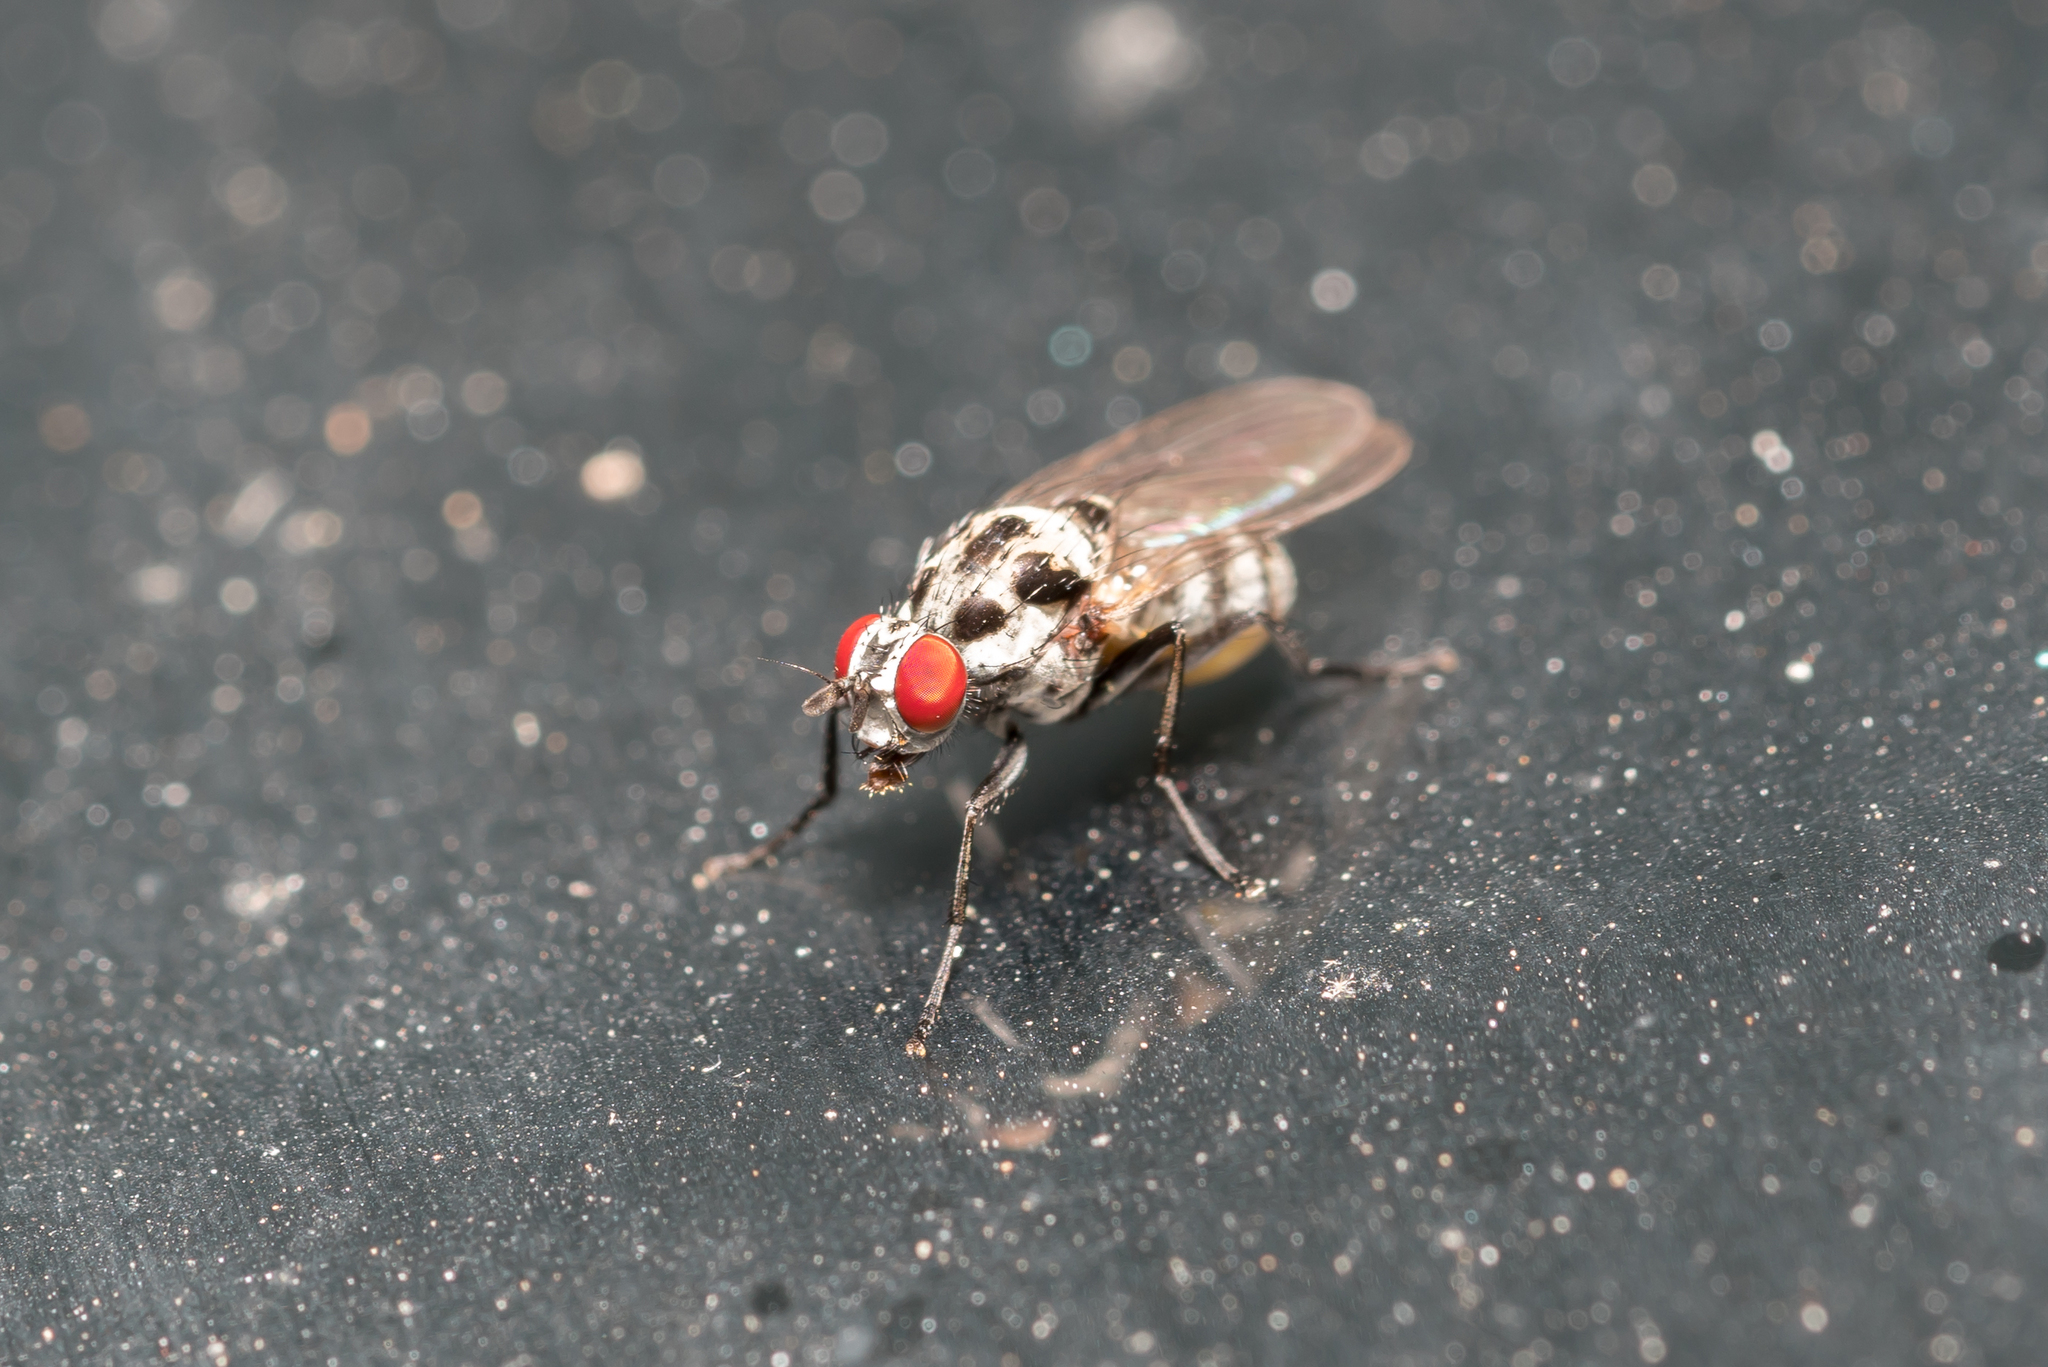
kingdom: Animalia
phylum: Arthropoda
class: Insecta
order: Diptera
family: Anthomyiidae
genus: Anthomyia
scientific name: Anthomyia pluvialis
